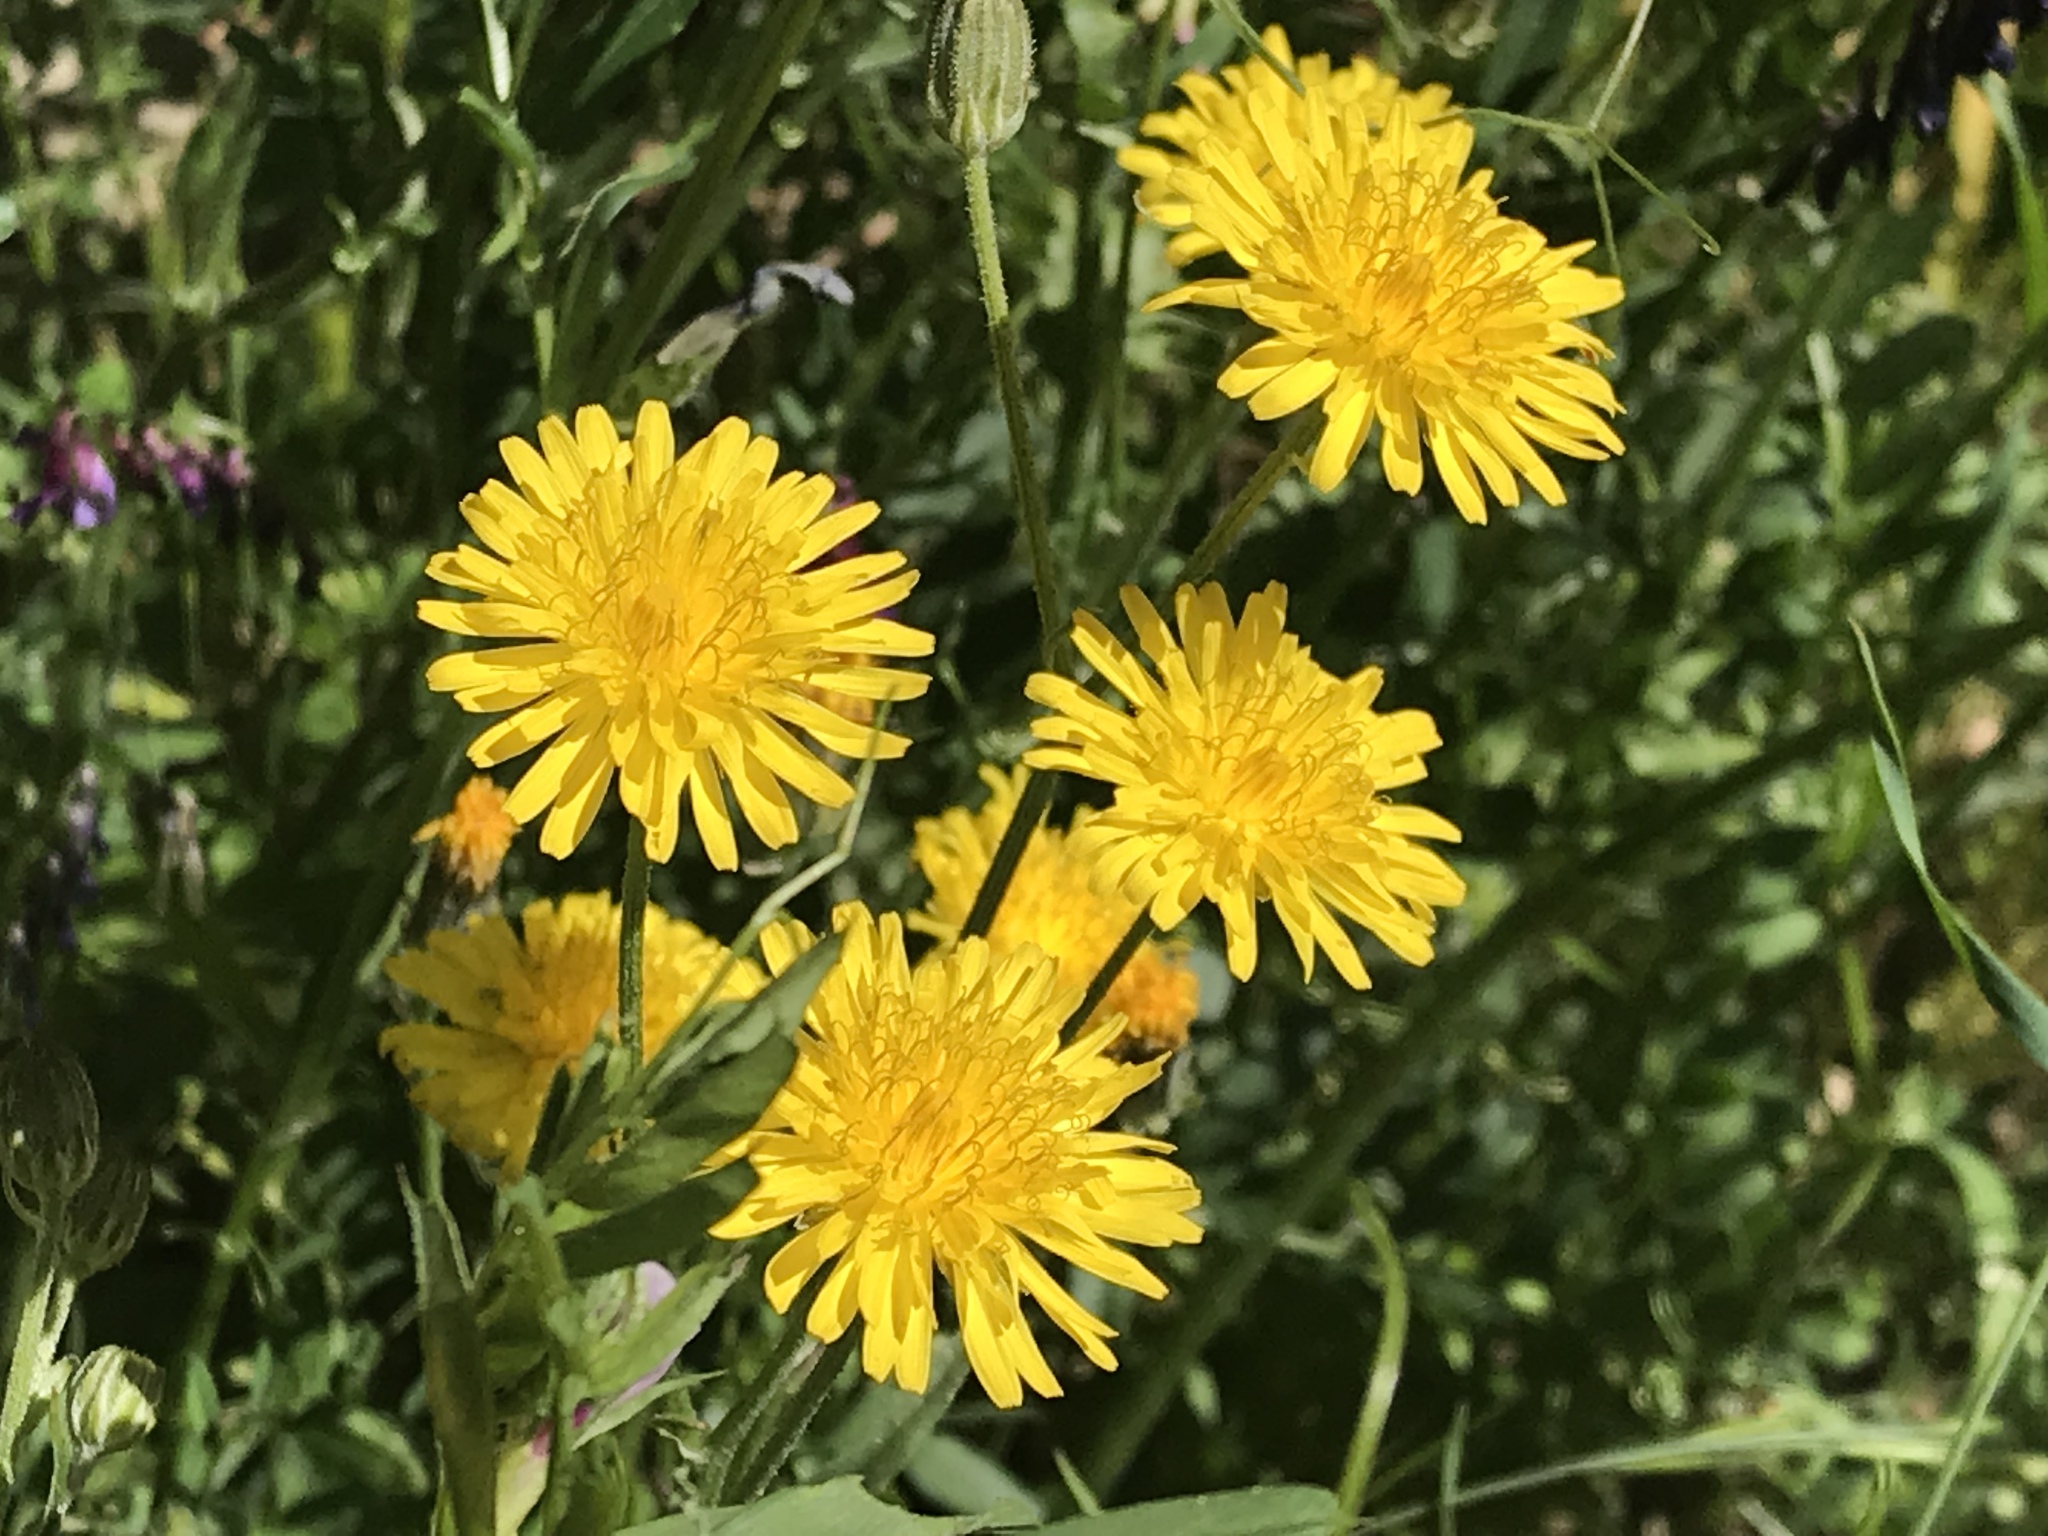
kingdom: Plantae
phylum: Tracheophyta
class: Magnoliopsida
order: Asterales
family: Asteraceae
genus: Taraxacum
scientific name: Taraxacum officinale
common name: Common dandelion
